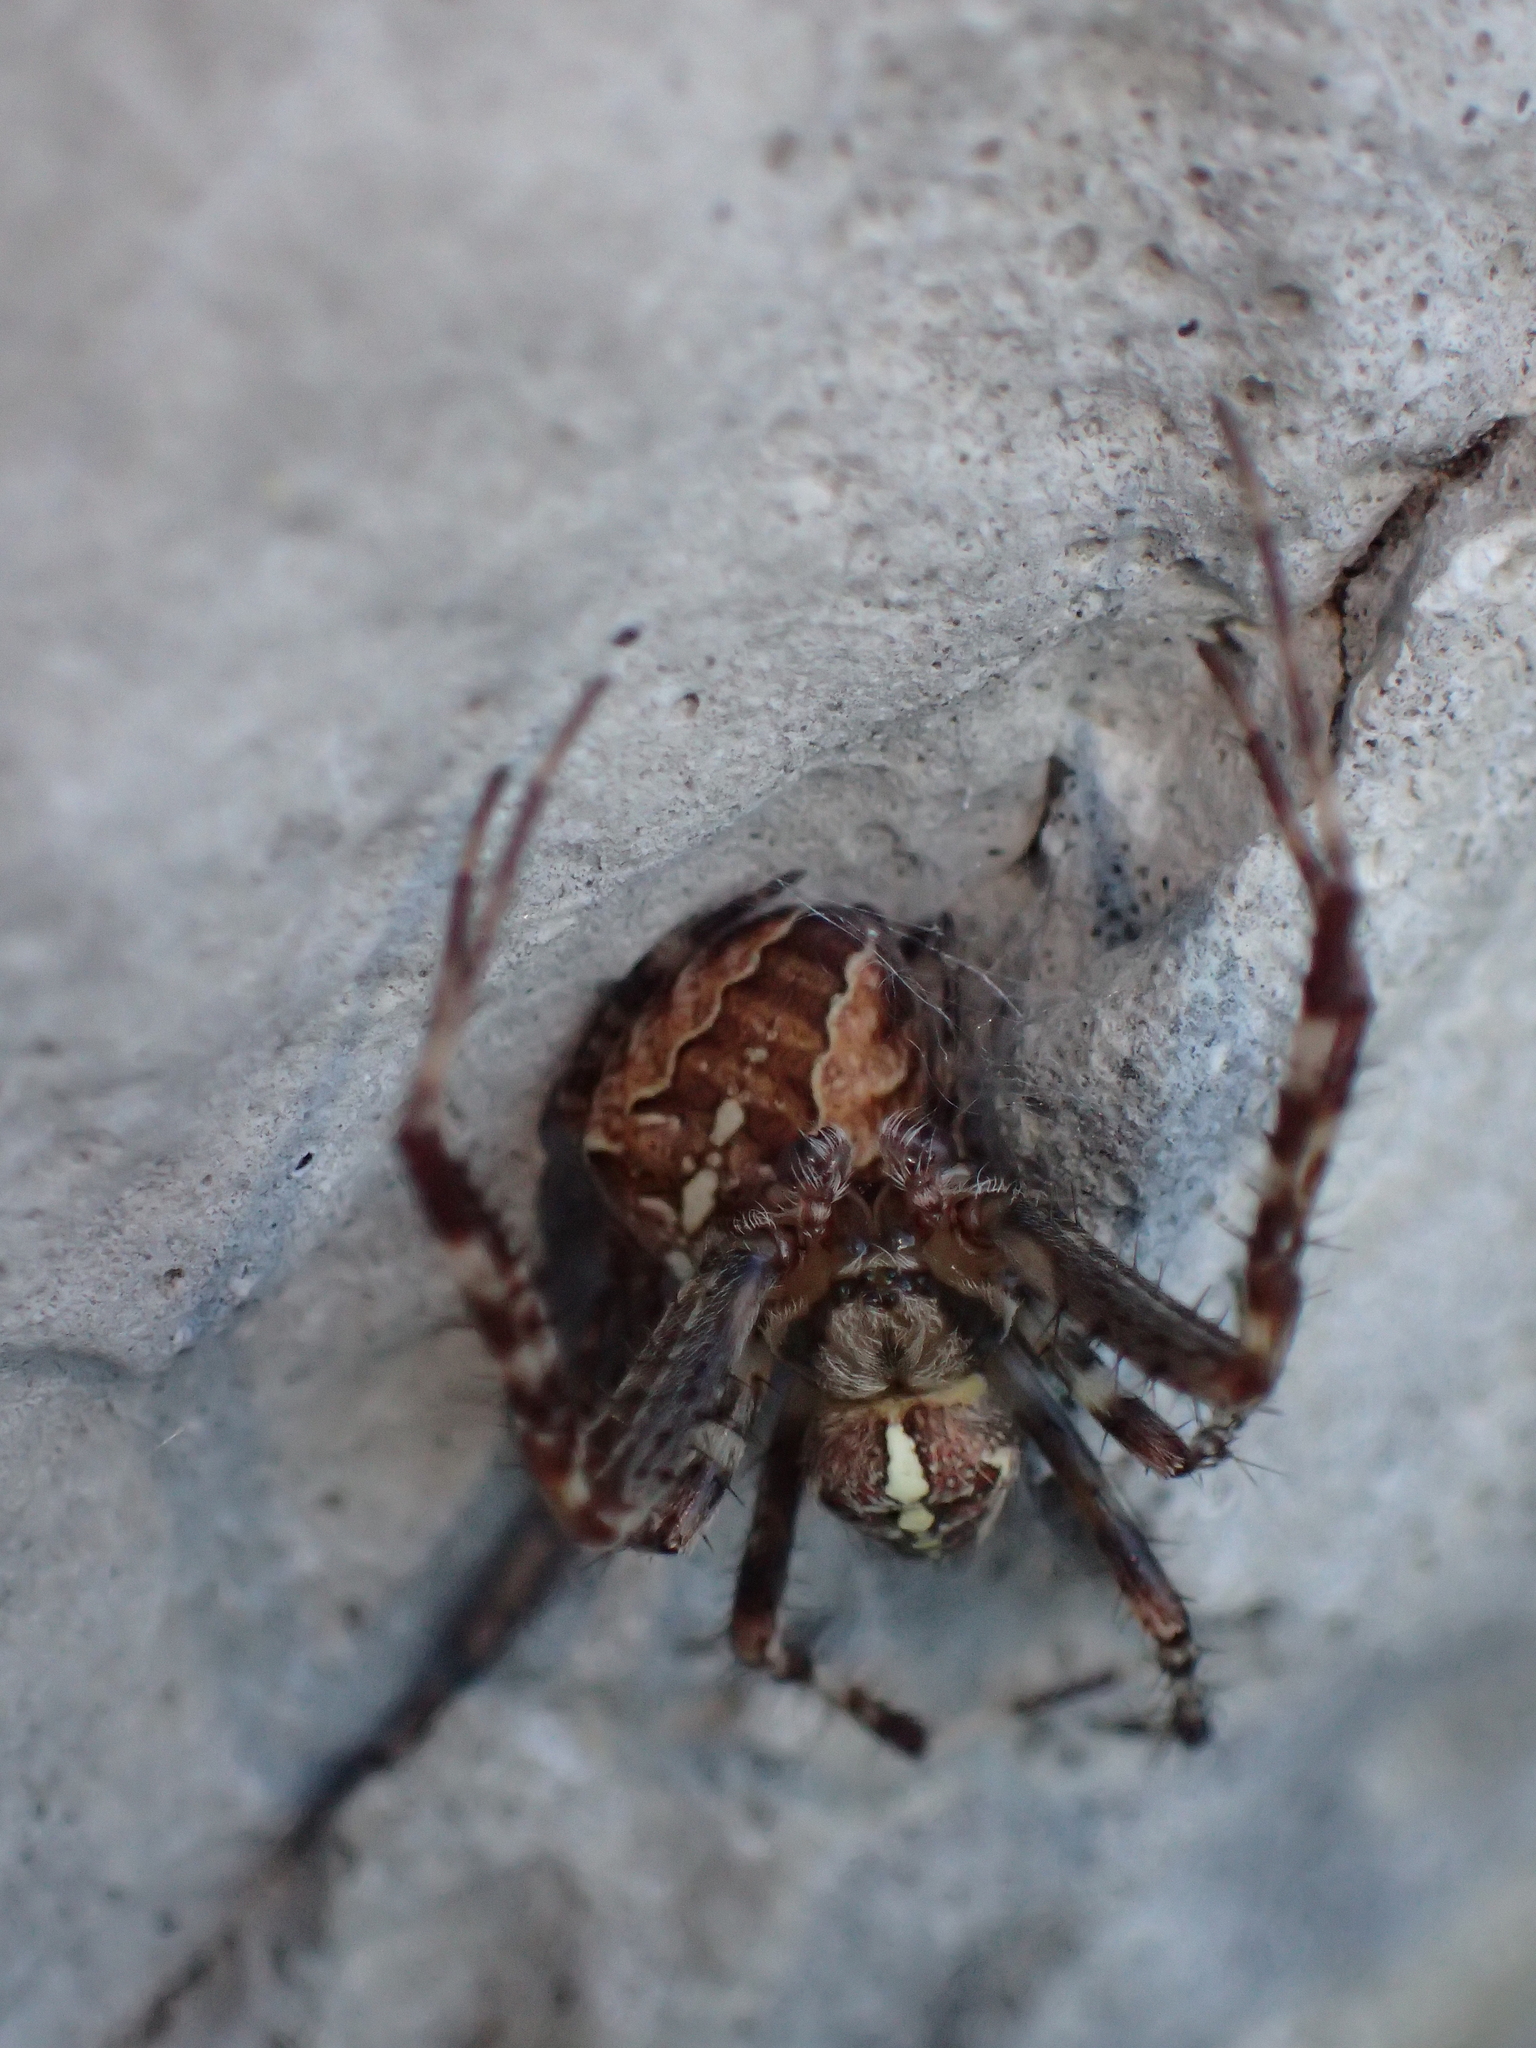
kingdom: Animalia
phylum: Arthropoda
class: Arachnida
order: Araneae
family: Araneidae
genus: Araneus
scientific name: Araneus diadematus
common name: Cross orbweaver
